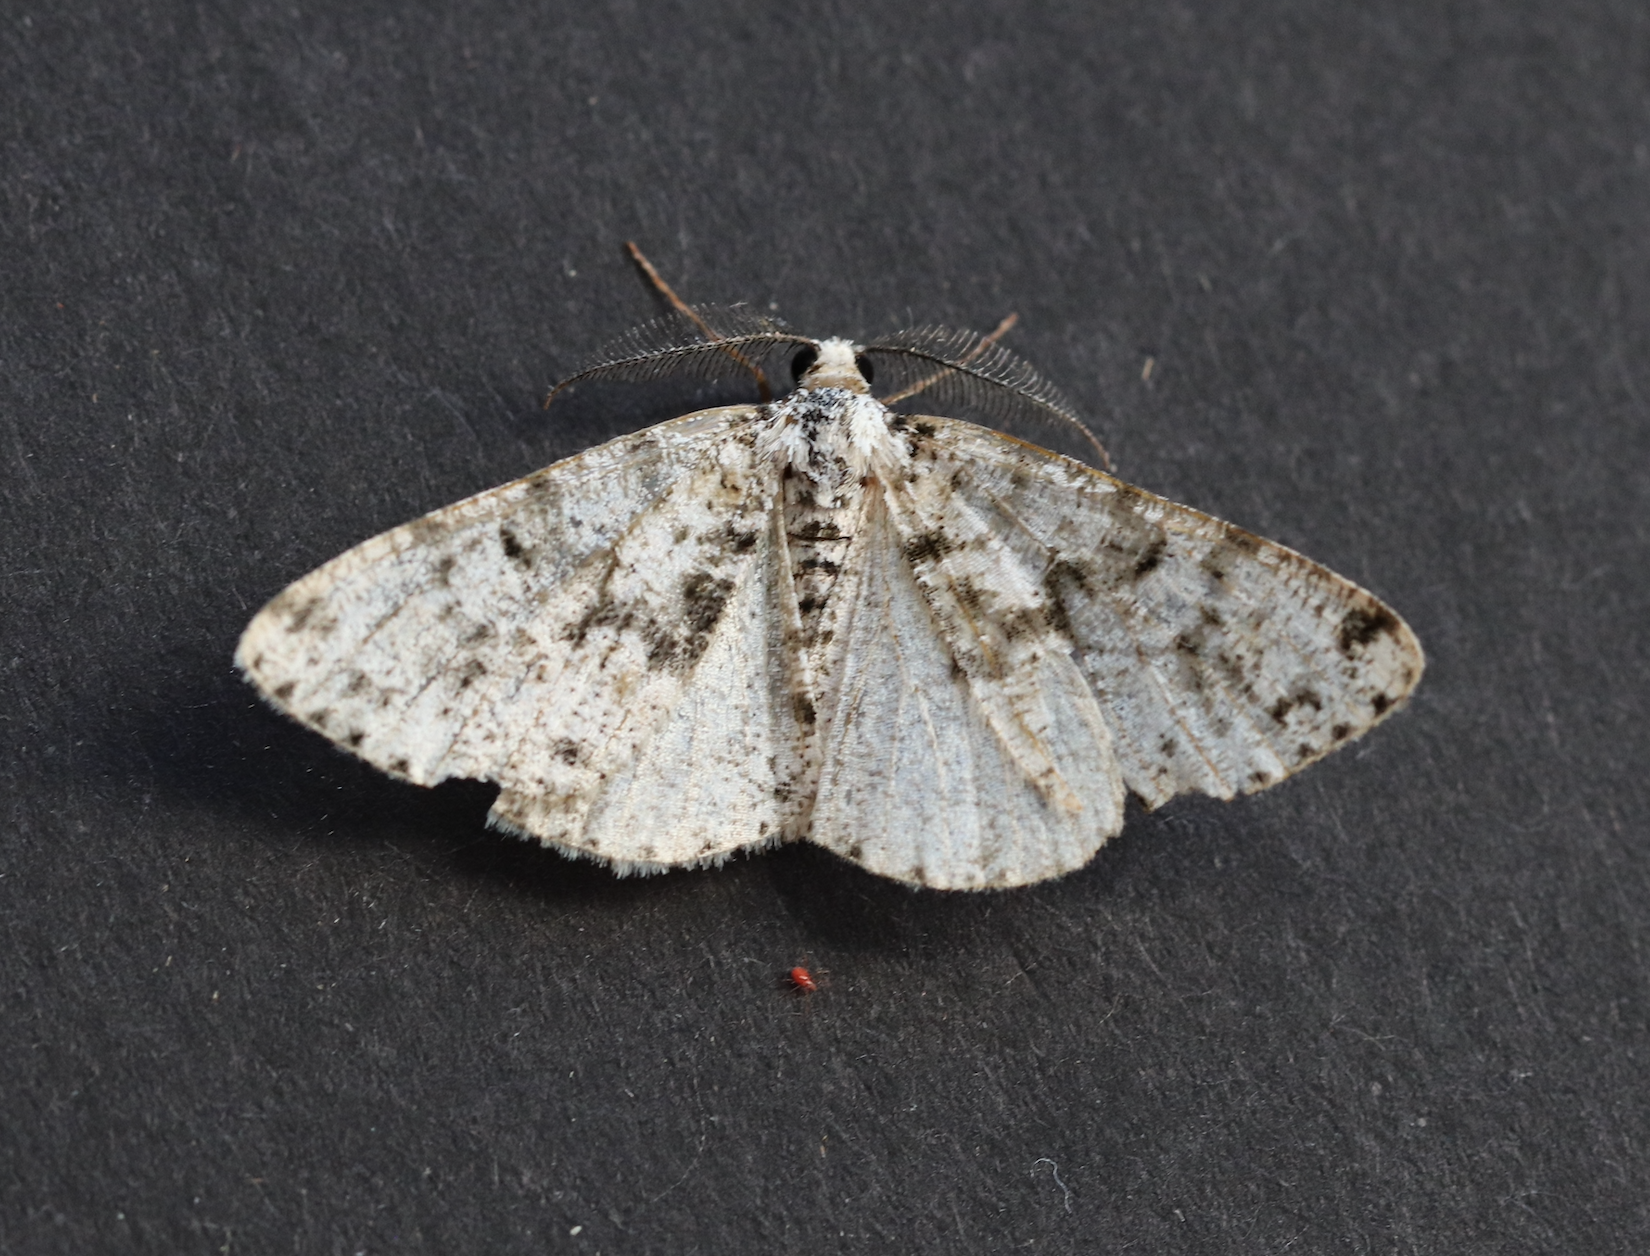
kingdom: Animalia
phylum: Arthropoda
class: Insecta
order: Lepidoptera
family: Geometridae
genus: Fagivorina
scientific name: Fagivorina arenaria
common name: Speckled beauty
